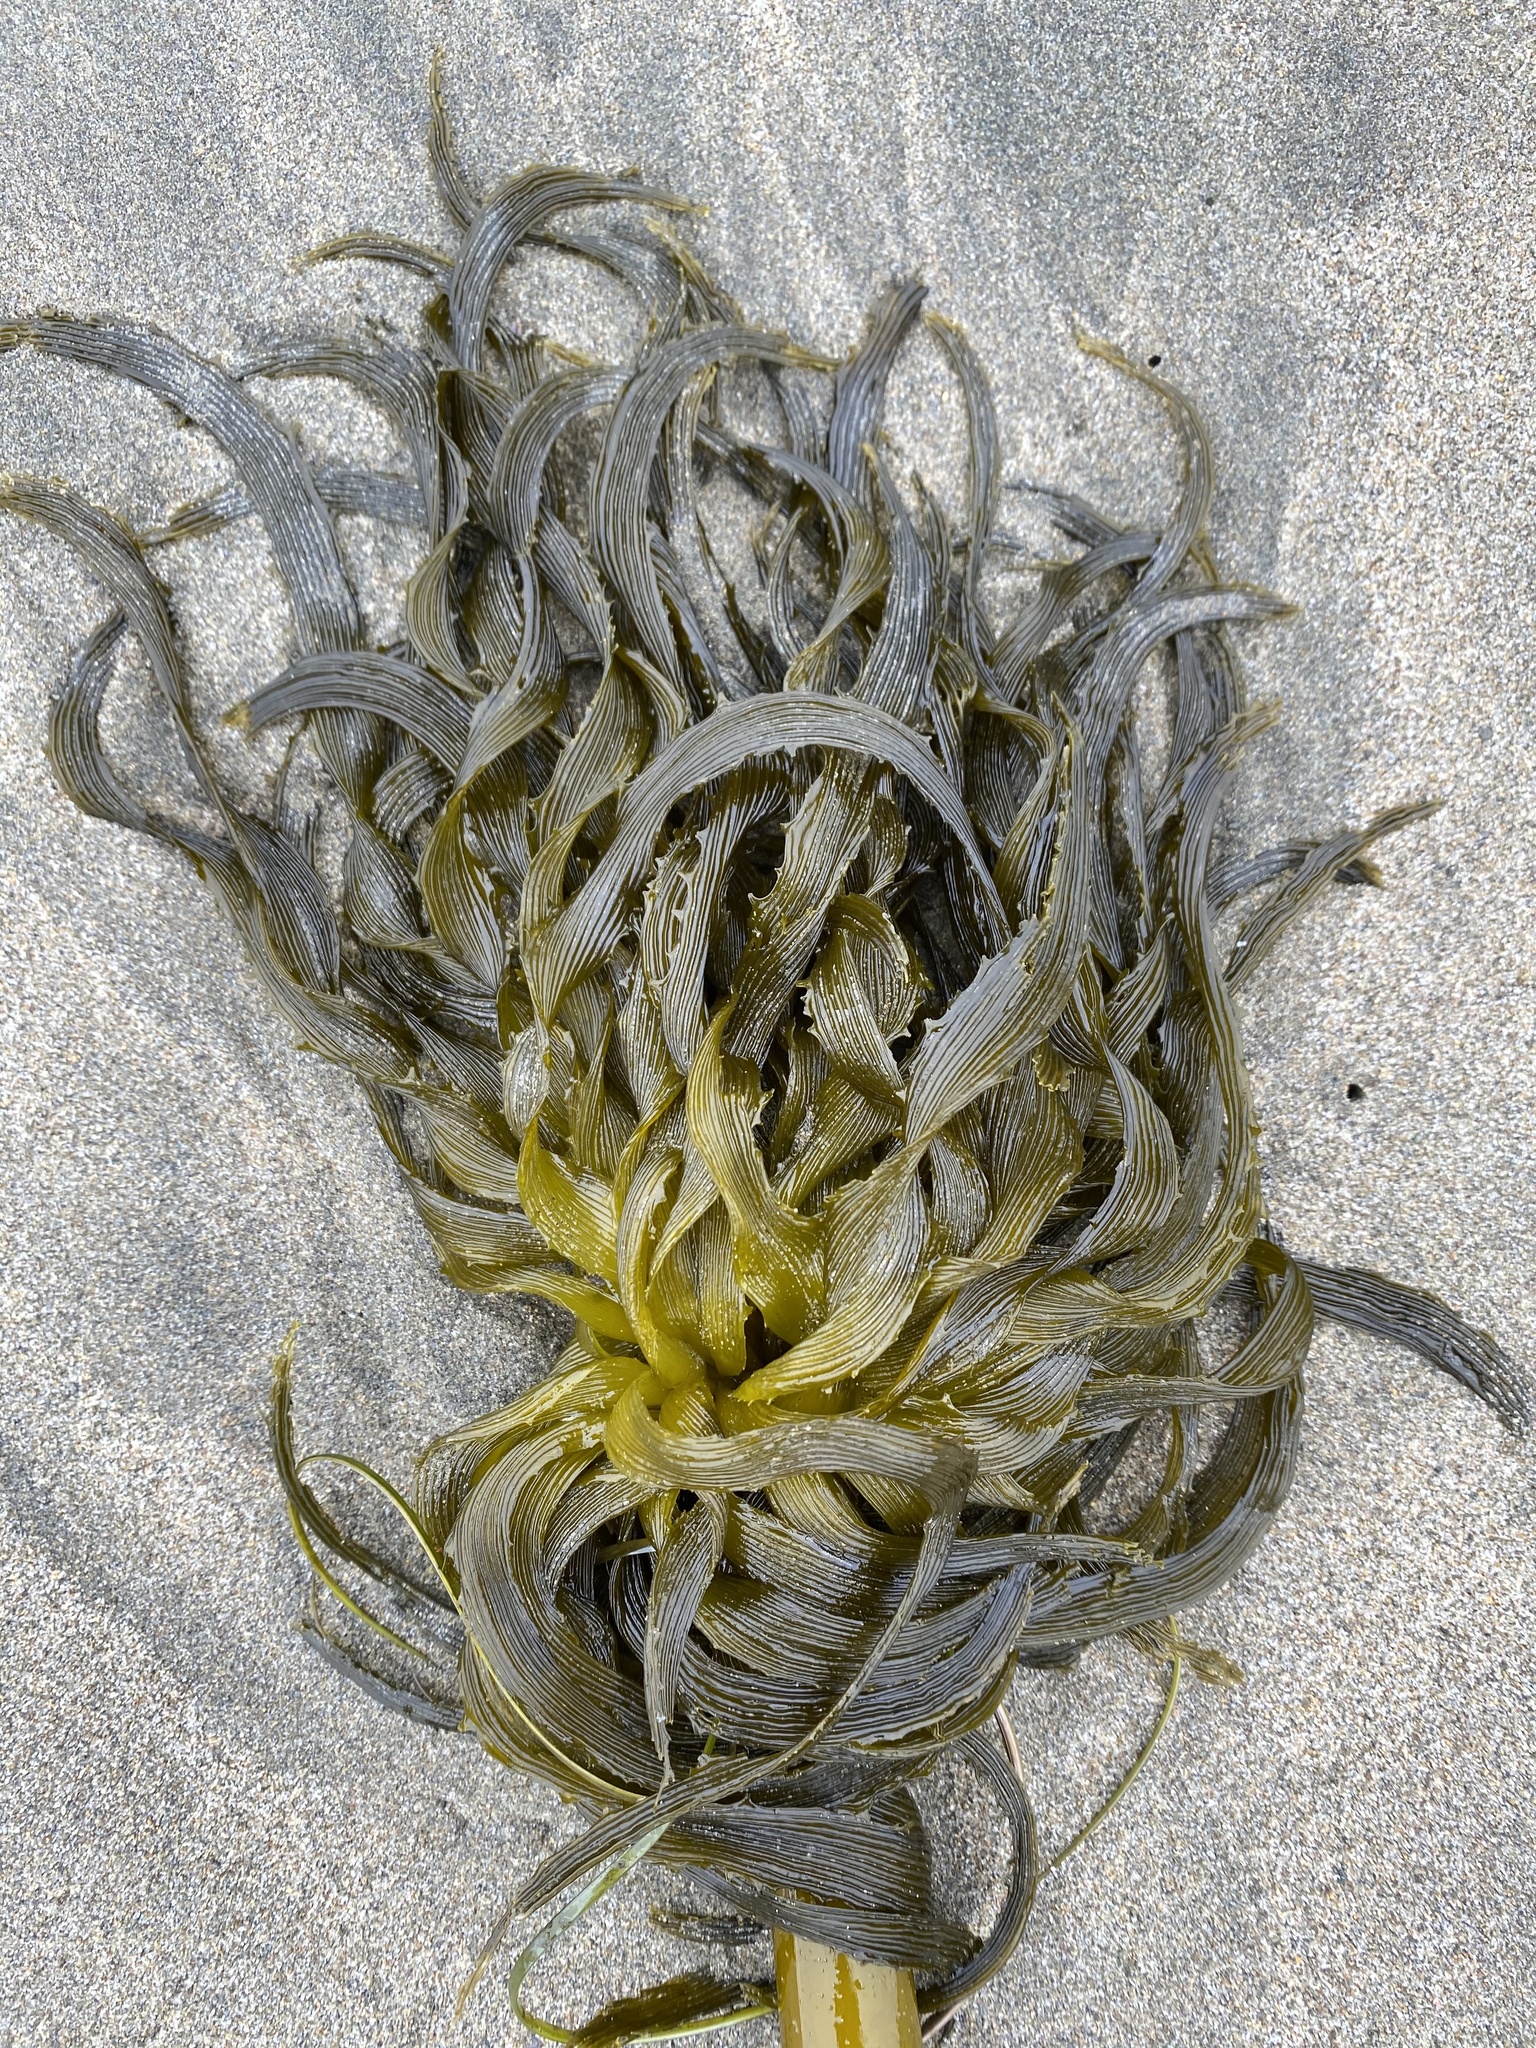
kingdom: Chromista
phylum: Ochrophyta
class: Phaeophyceae
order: Laminariales
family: Laminariaceae
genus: Postelsia
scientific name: Postelsia palmiformis
